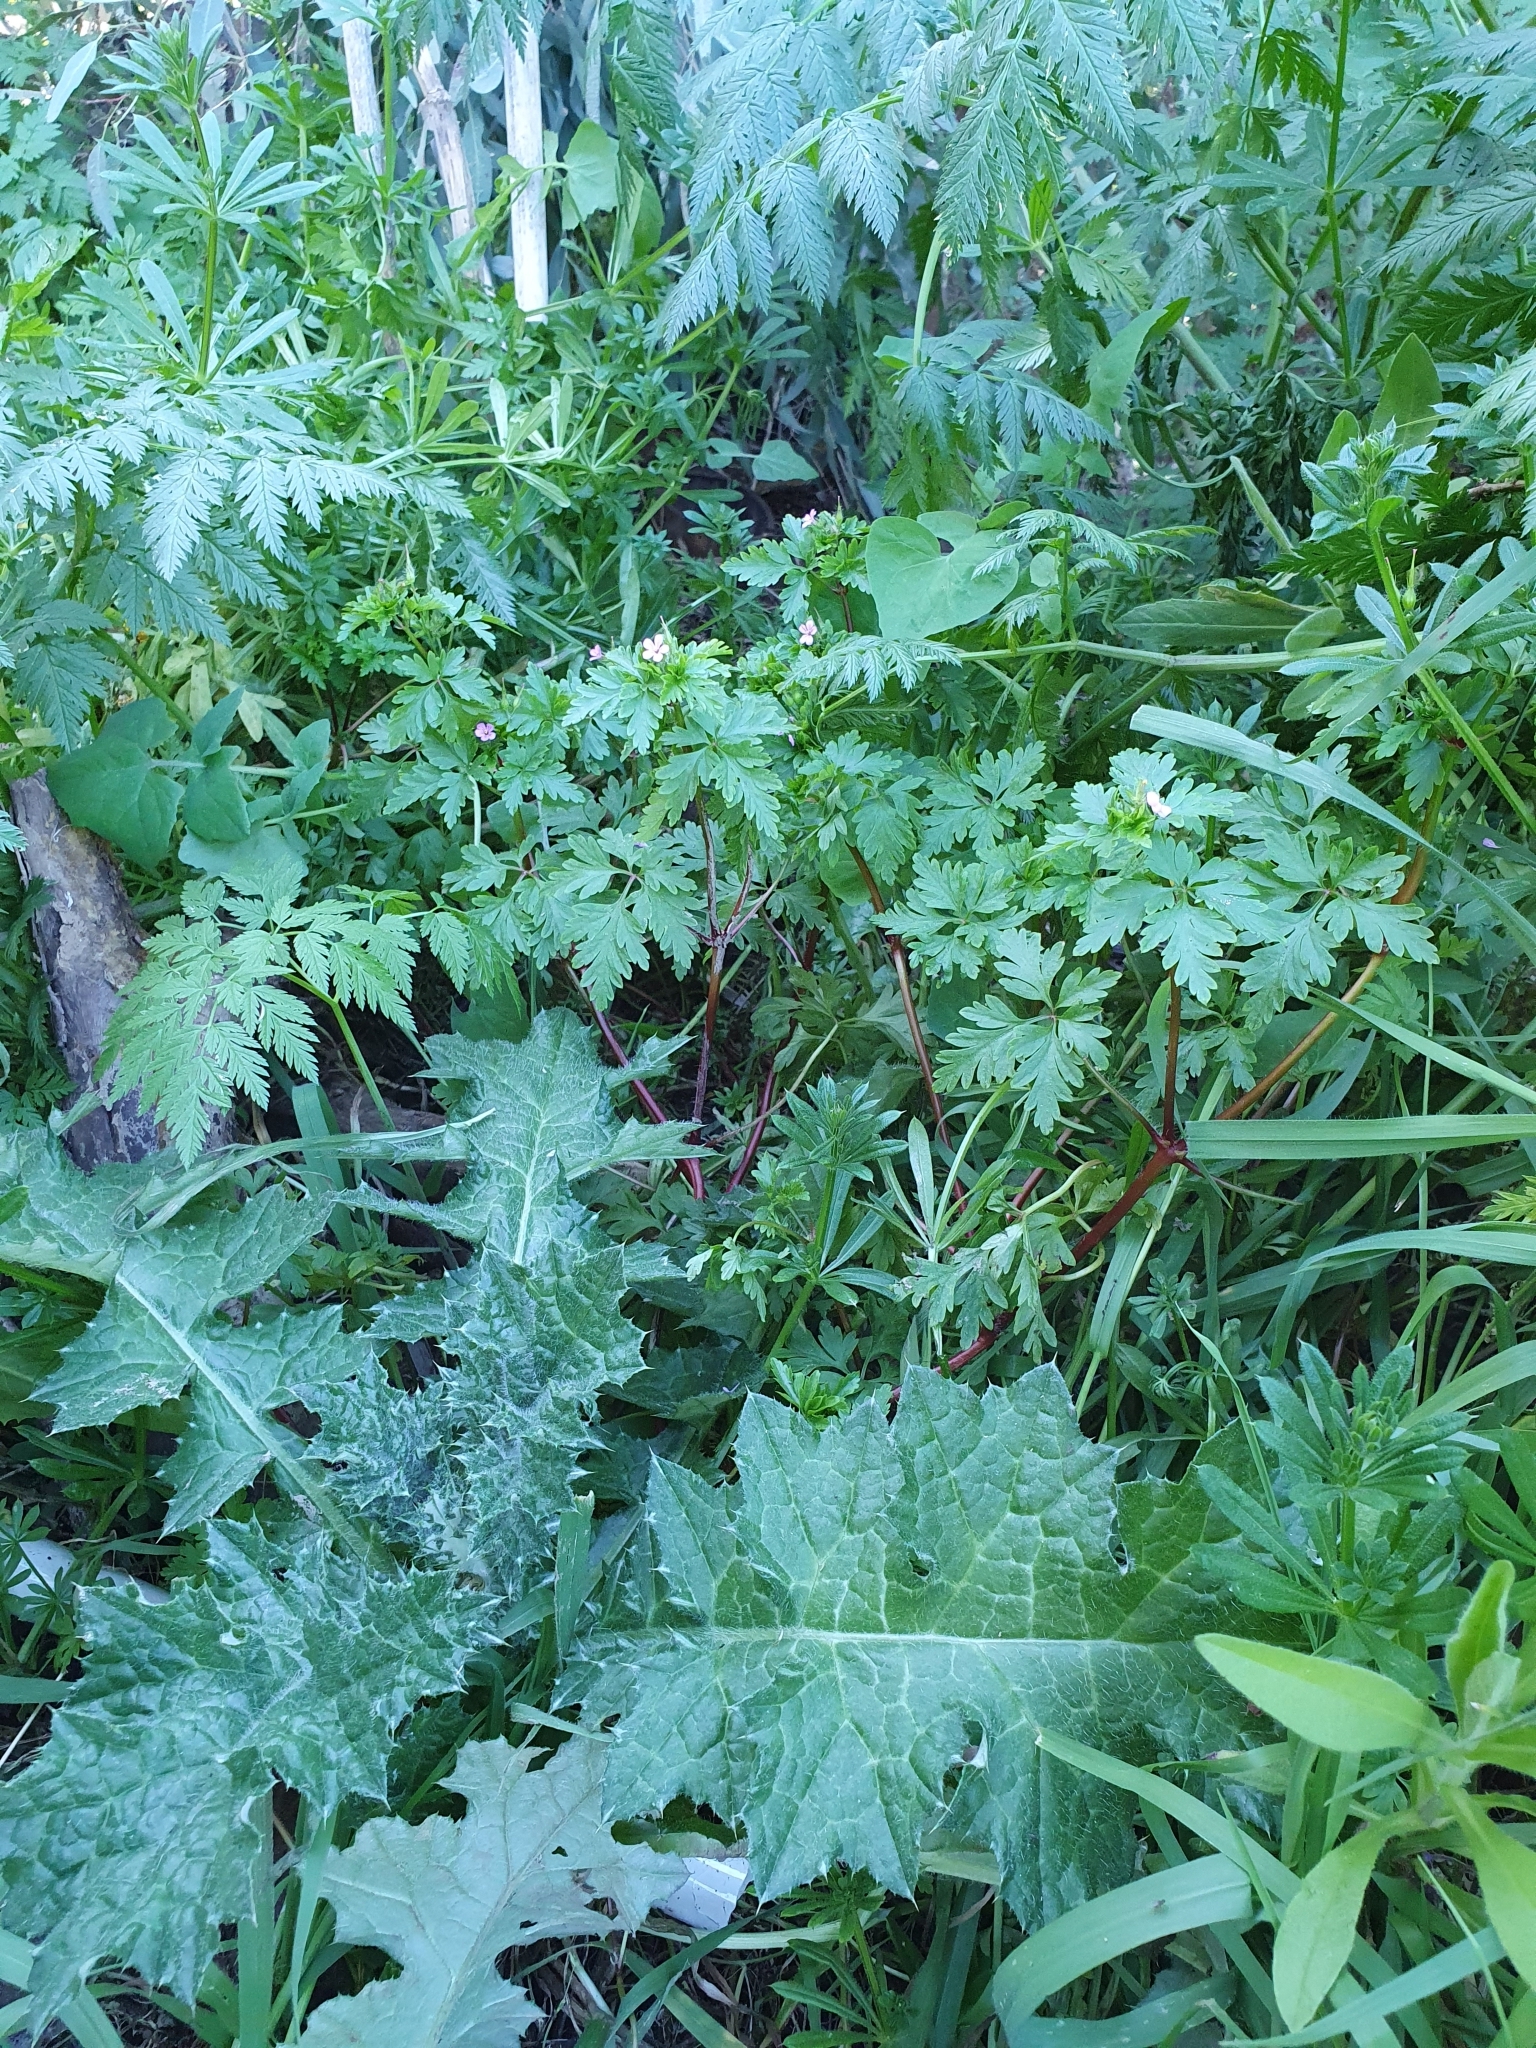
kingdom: Plantae
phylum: Tracheophyta
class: Magnoliopsida
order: Geraniales
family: Geraniaceae
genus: Geranium
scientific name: Geranium purpureum
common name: Little-robin
